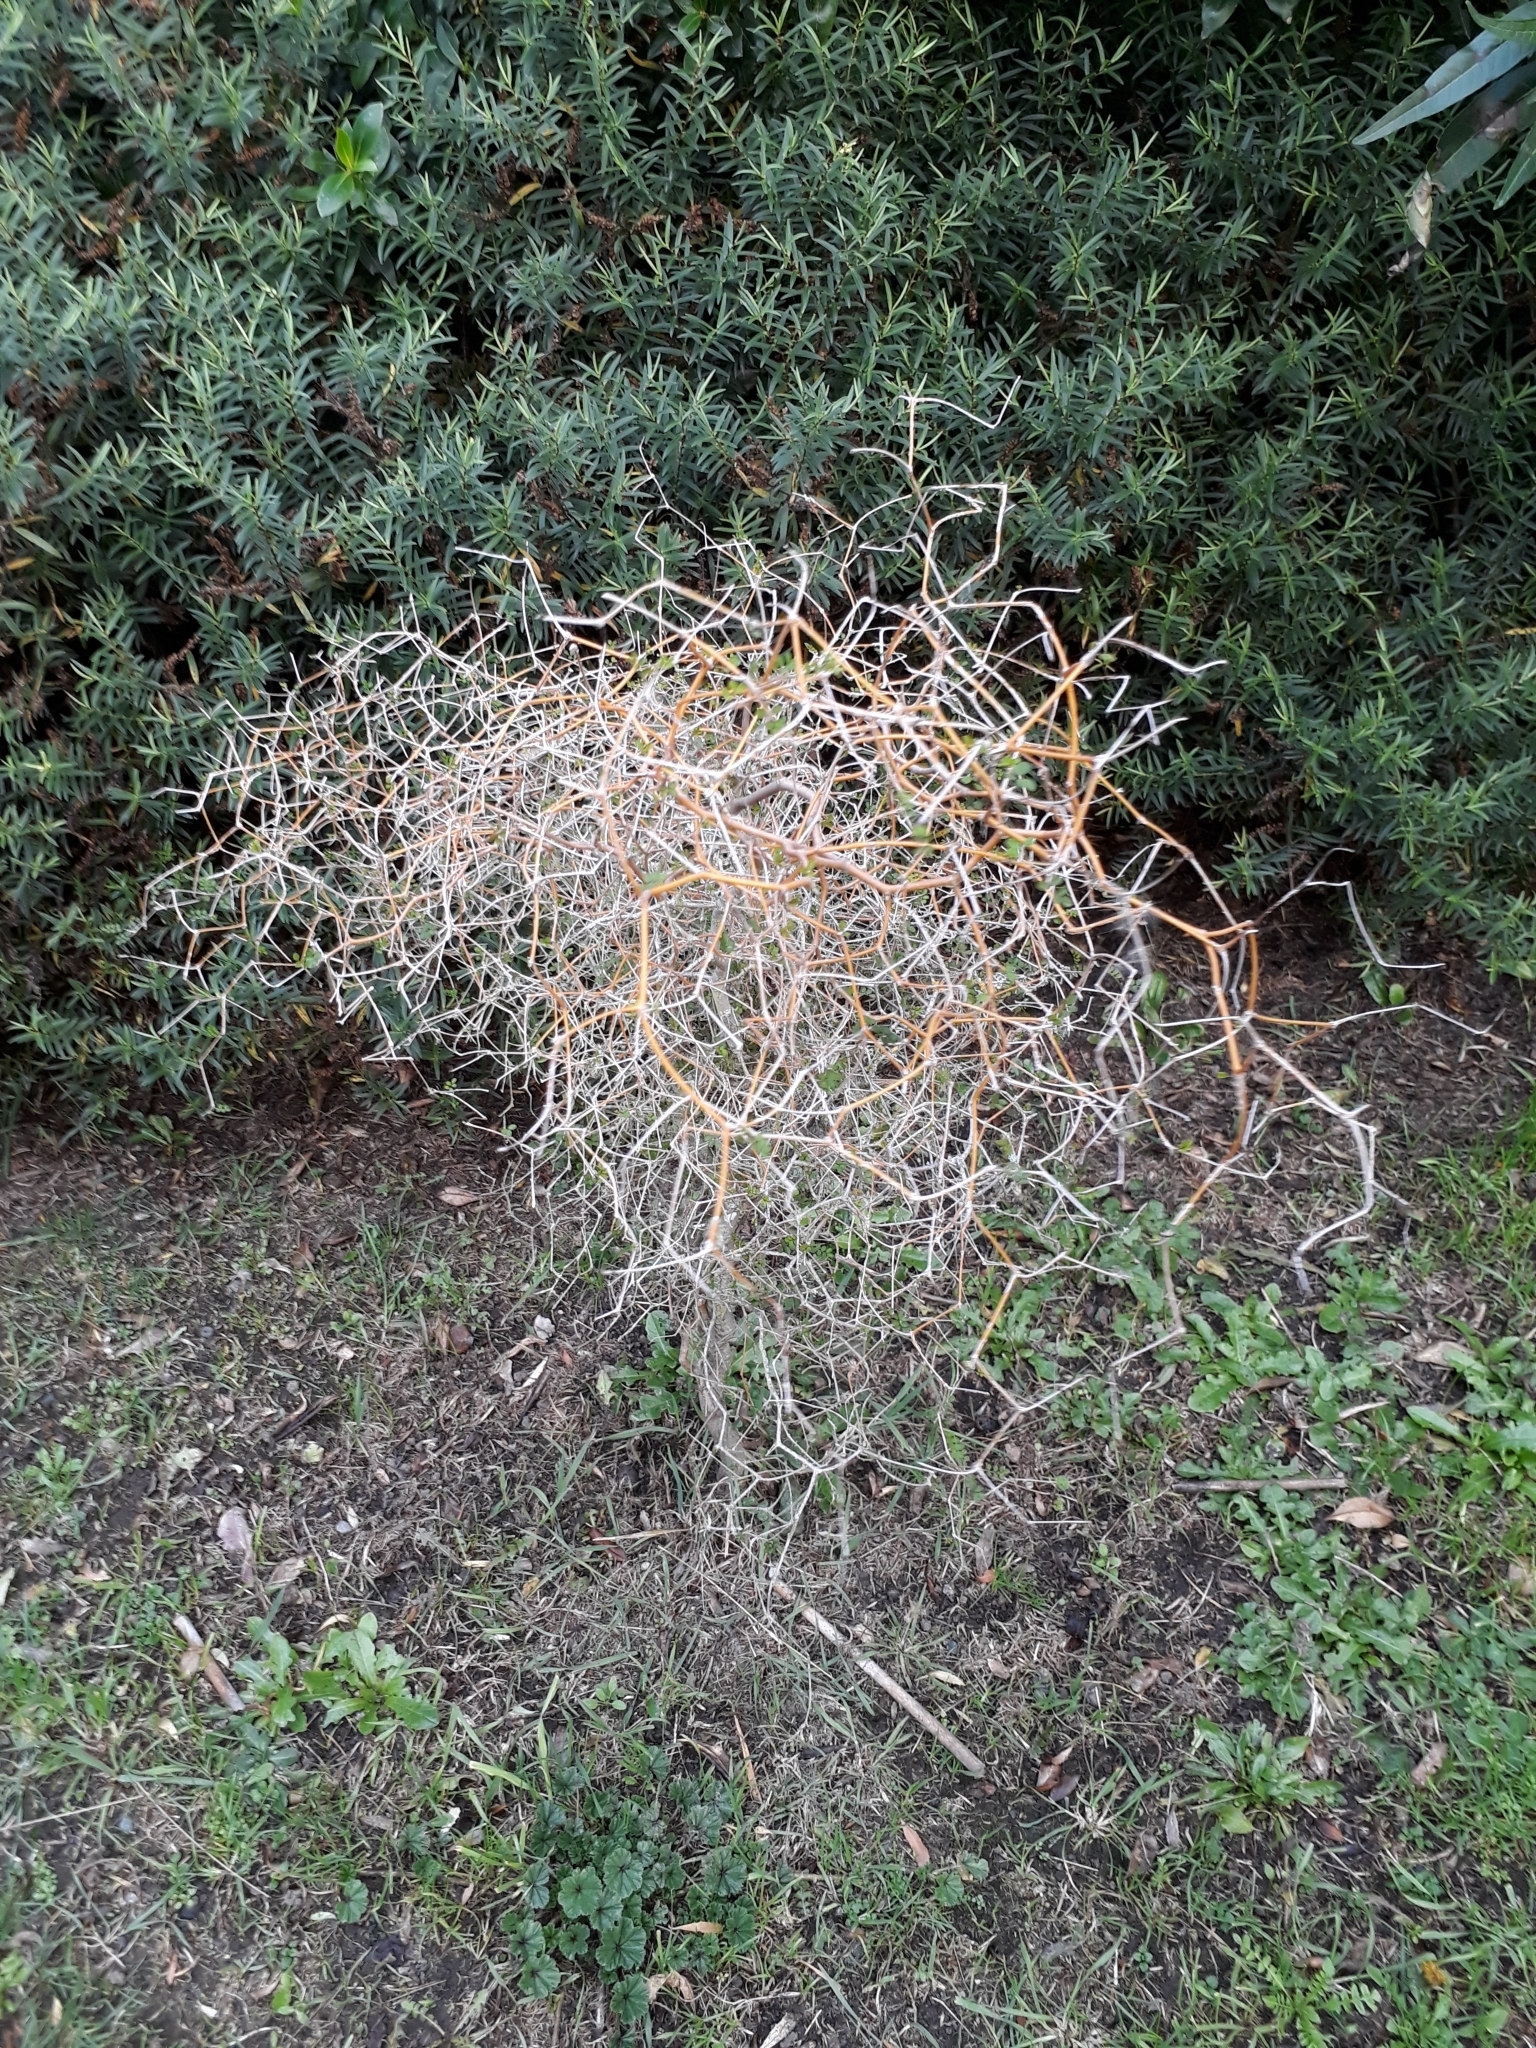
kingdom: Plantae
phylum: Tracheophyta
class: Magnoliopsida
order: Fabales
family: Fabaceae
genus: Sophora
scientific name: Sophora microphylla
